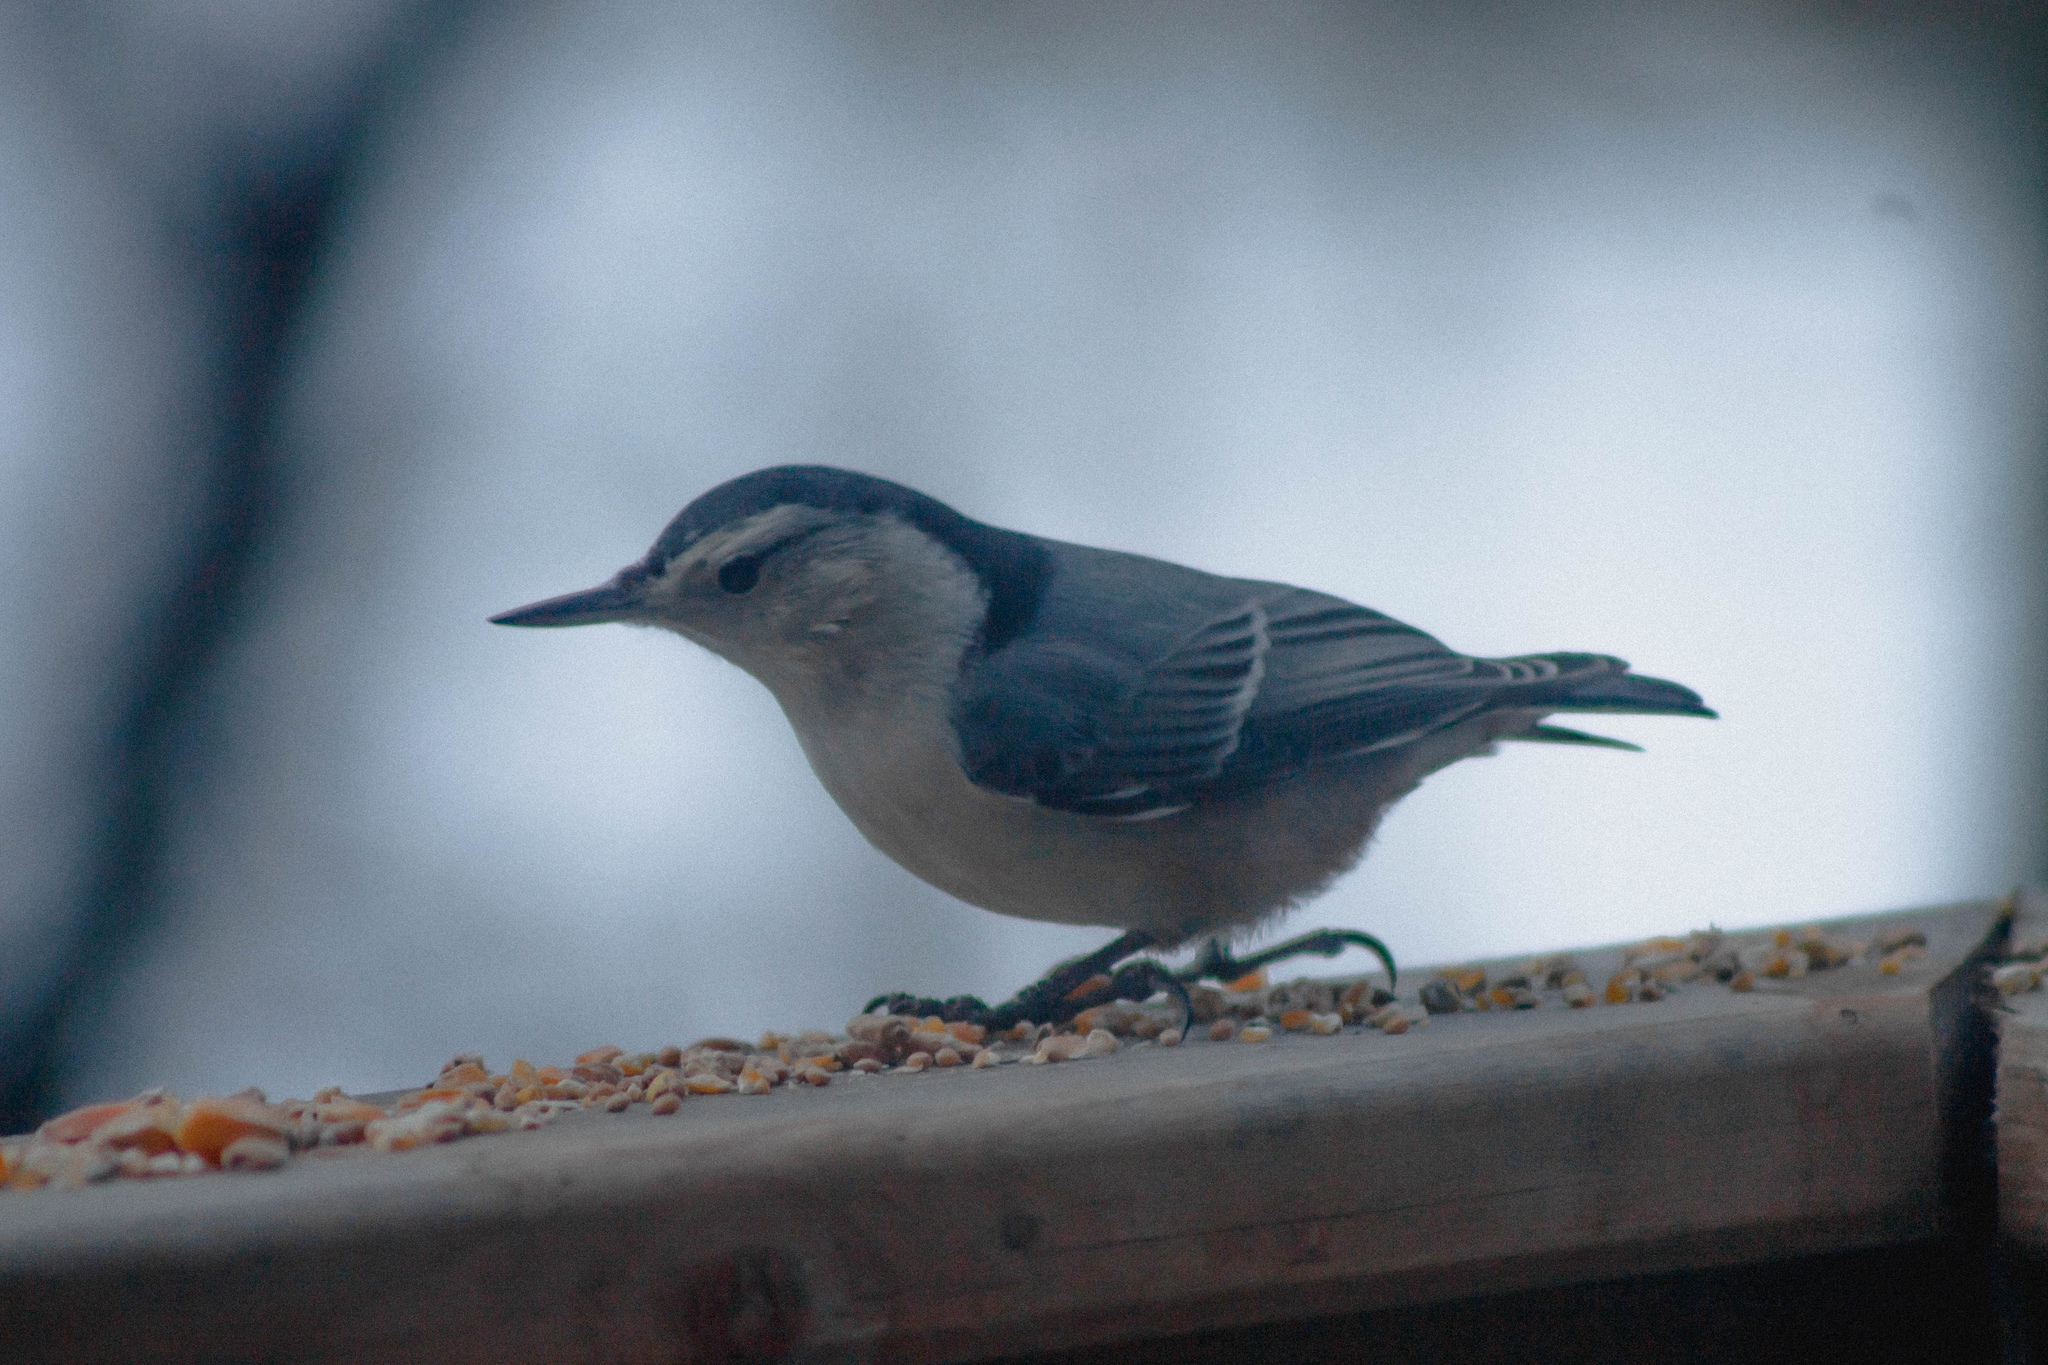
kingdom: Animalia
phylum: Chordata
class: Aves
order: Passeriformes
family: Sittidae
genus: Sitta
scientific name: Sitta carolinensis
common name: White-breasted nuthatch
